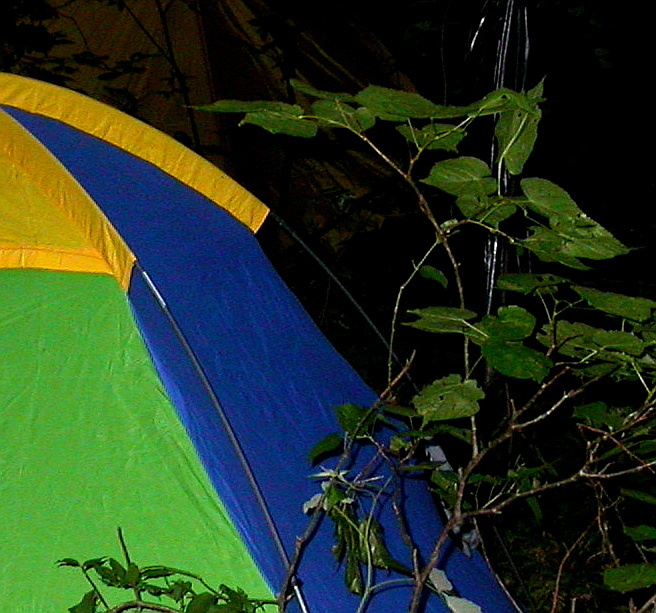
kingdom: Plantae
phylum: Tracheophyta
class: Magnoliopsida
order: Fagales
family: Betulaceae
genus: Corylus
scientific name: Corylus avellana
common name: European hazel
